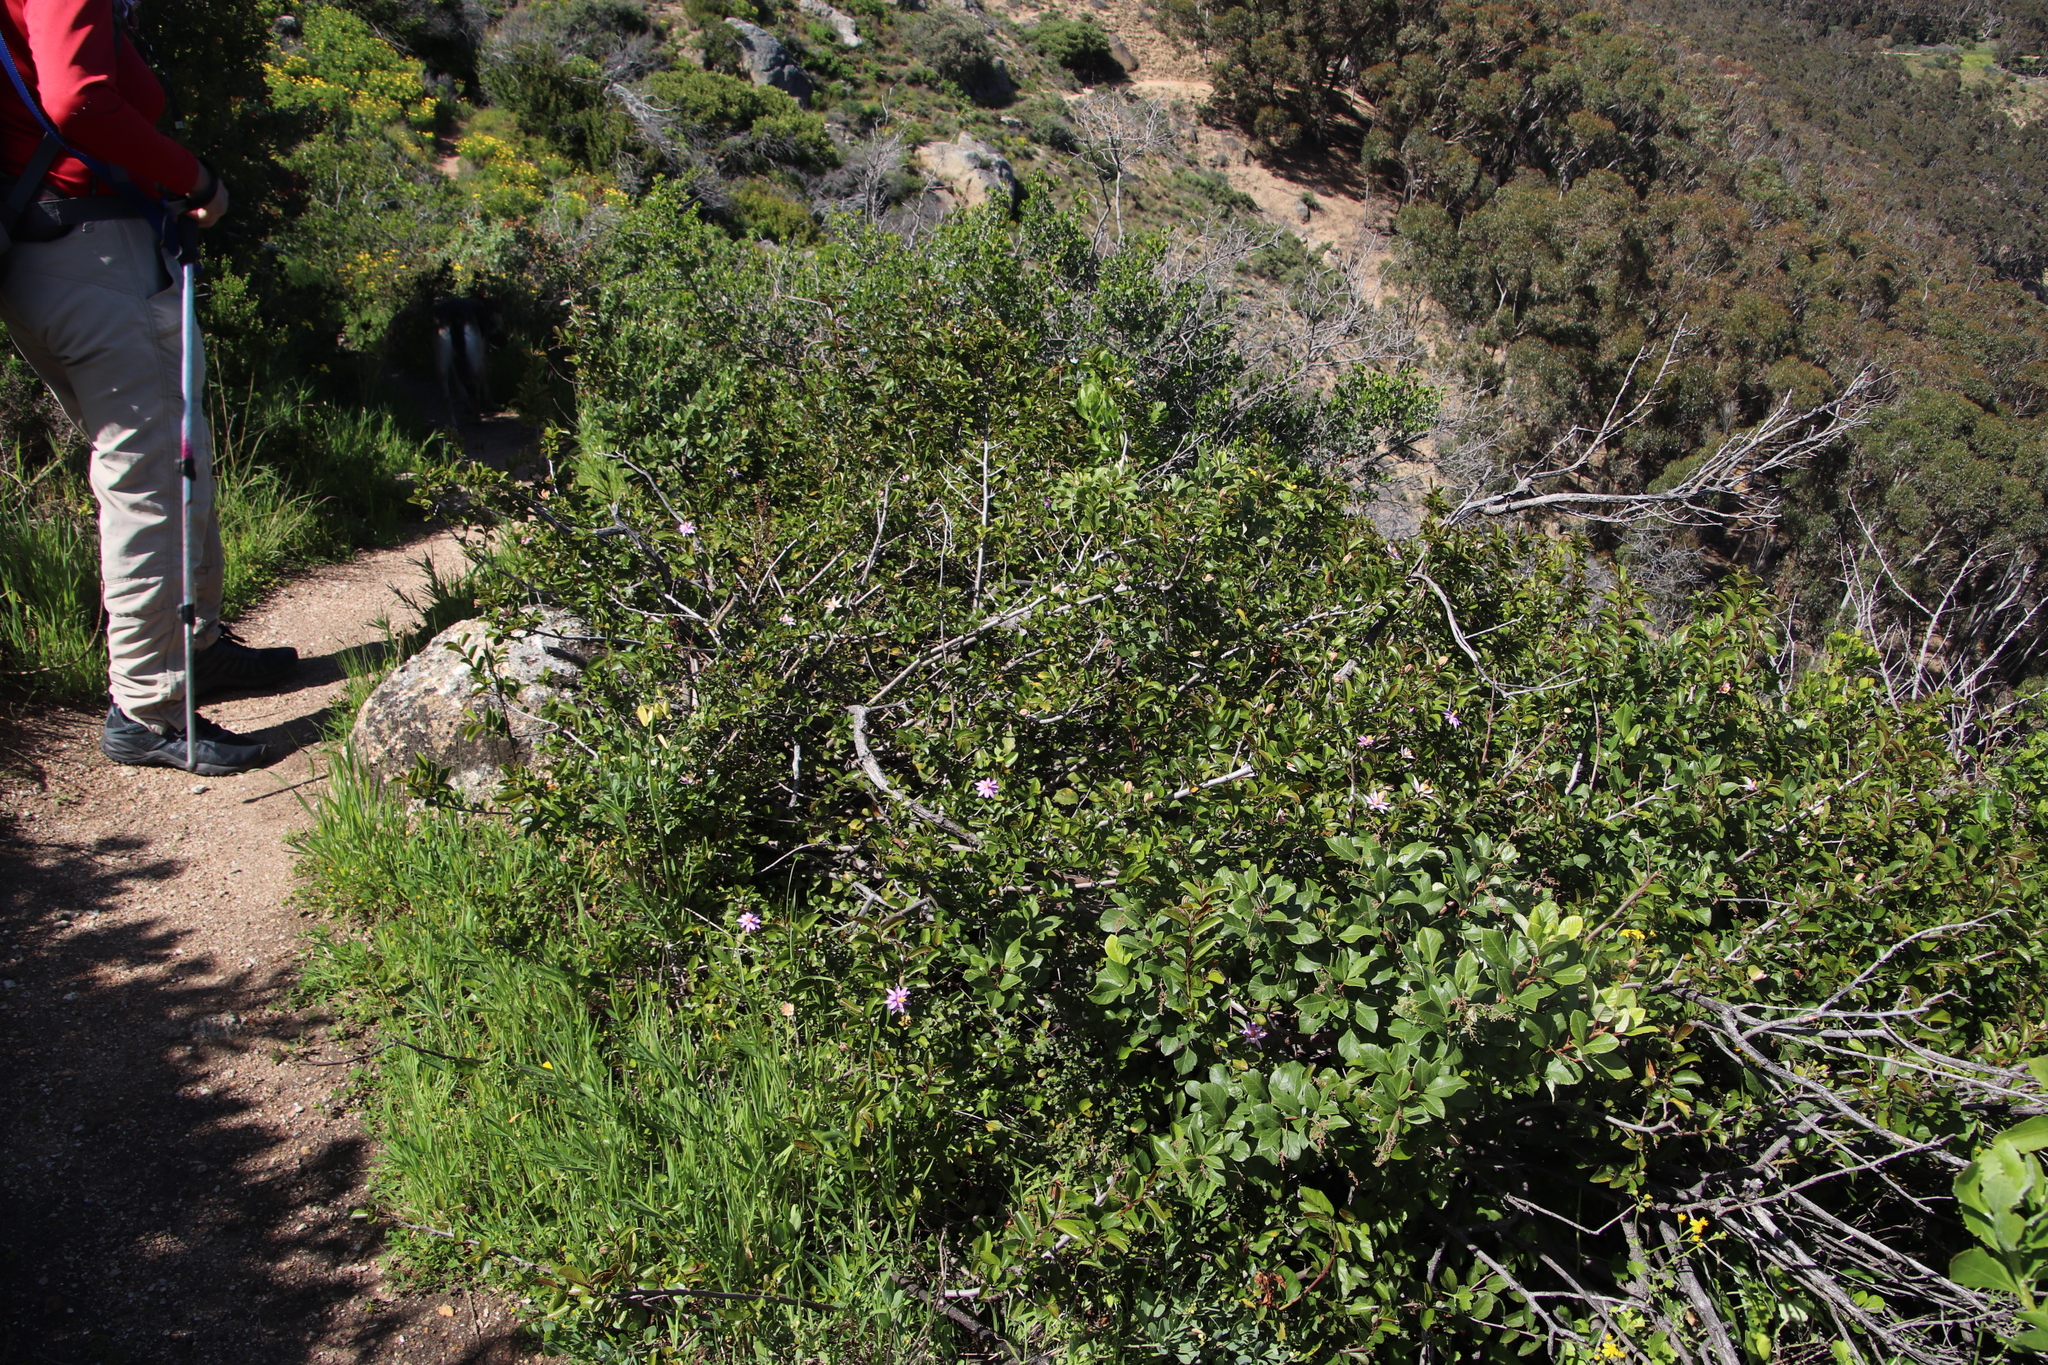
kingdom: Plantae
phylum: Tracheophyta
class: Magnoliopsida
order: Malvales
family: Malvaceae
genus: Grewia
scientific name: Grewia occidentalis
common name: Crossberry
